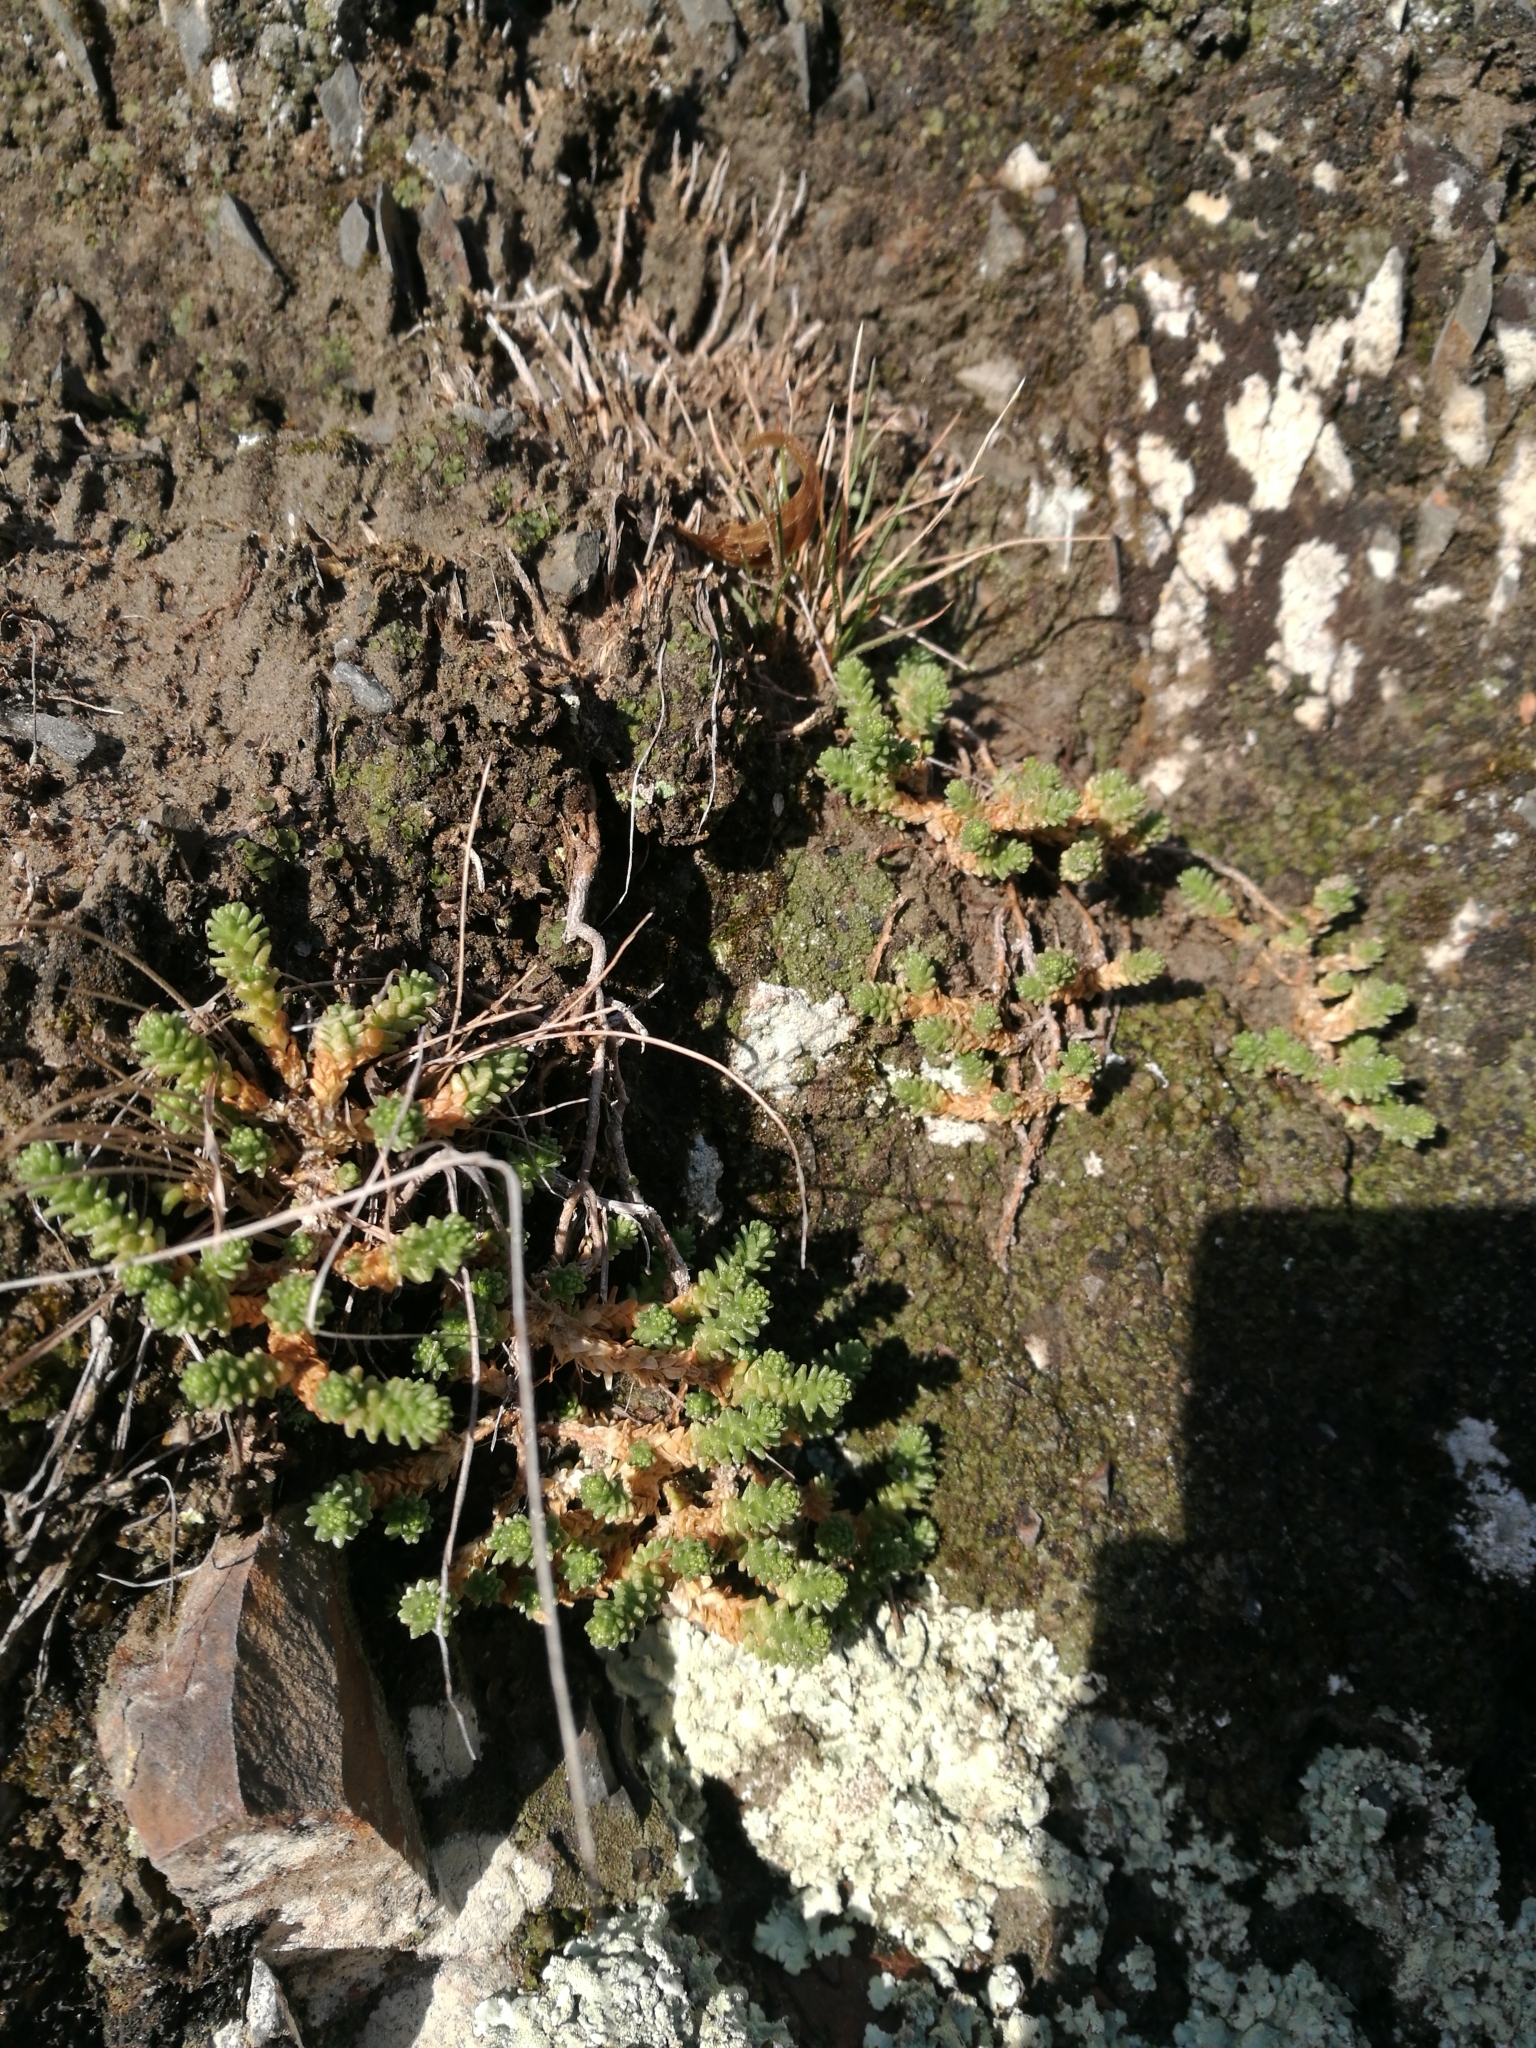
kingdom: Plantae
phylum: Tracheophyta
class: Magnoliopsida
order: Saxifragales
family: Crassulaceae
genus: Sedum
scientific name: Sedum acre
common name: Biting stonecrop
